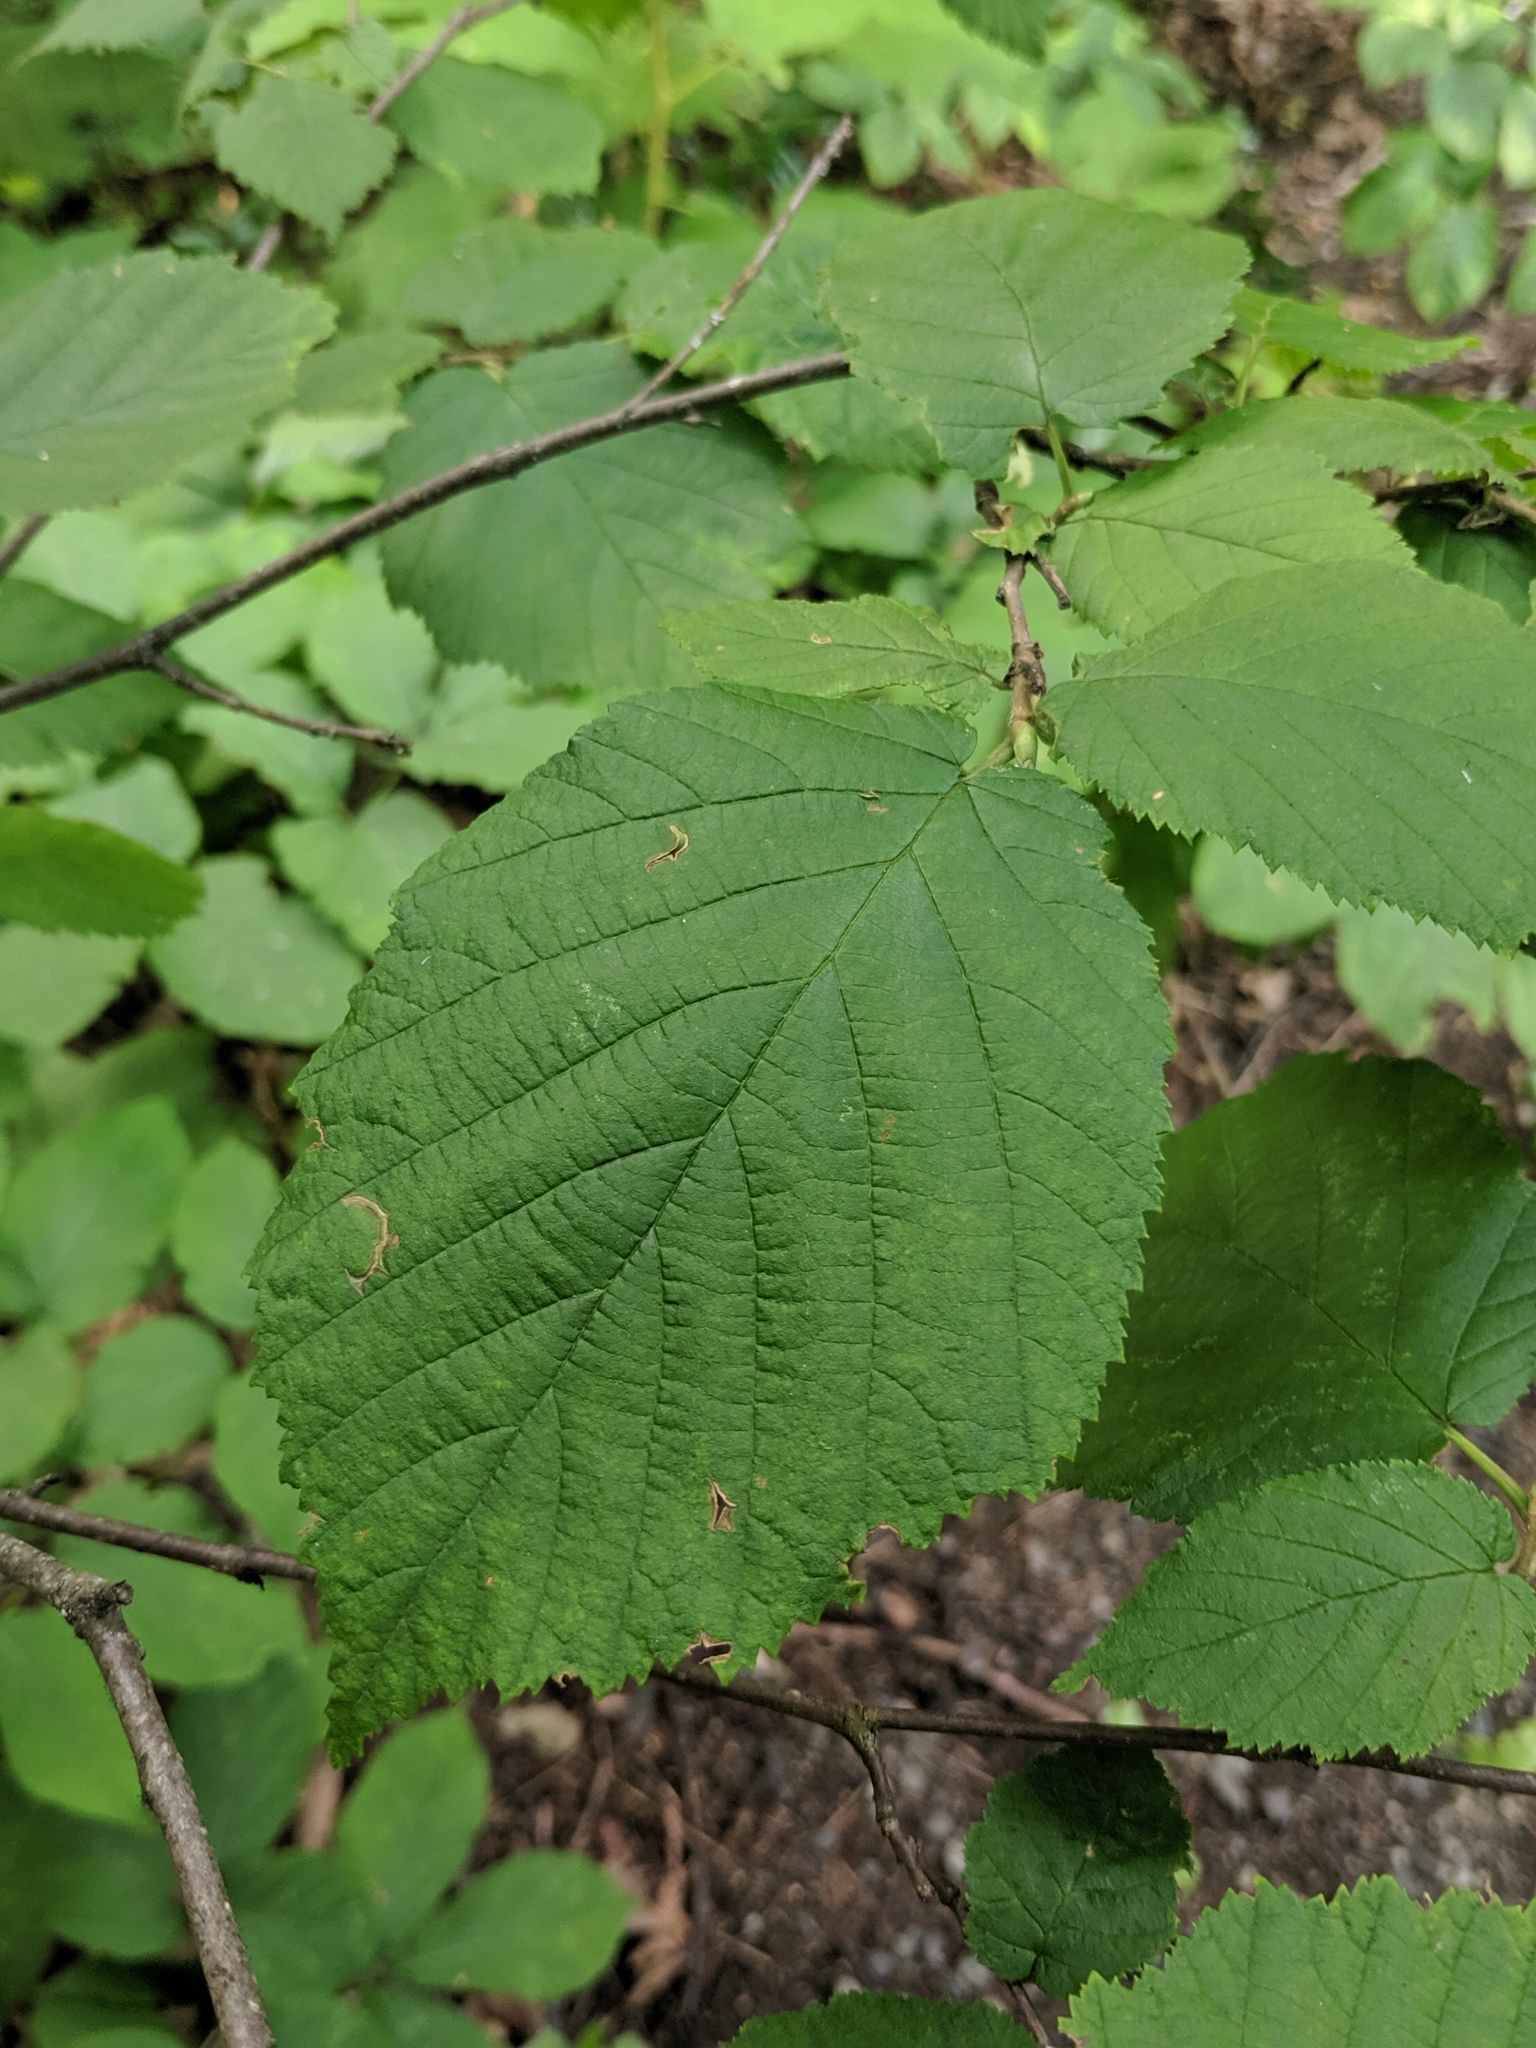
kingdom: Plantae
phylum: Tracheophyta
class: Magnoliopsida
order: Fagales
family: Betulaceae
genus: Corylus
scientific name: Corylus cornuta
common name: Beaked hazel
